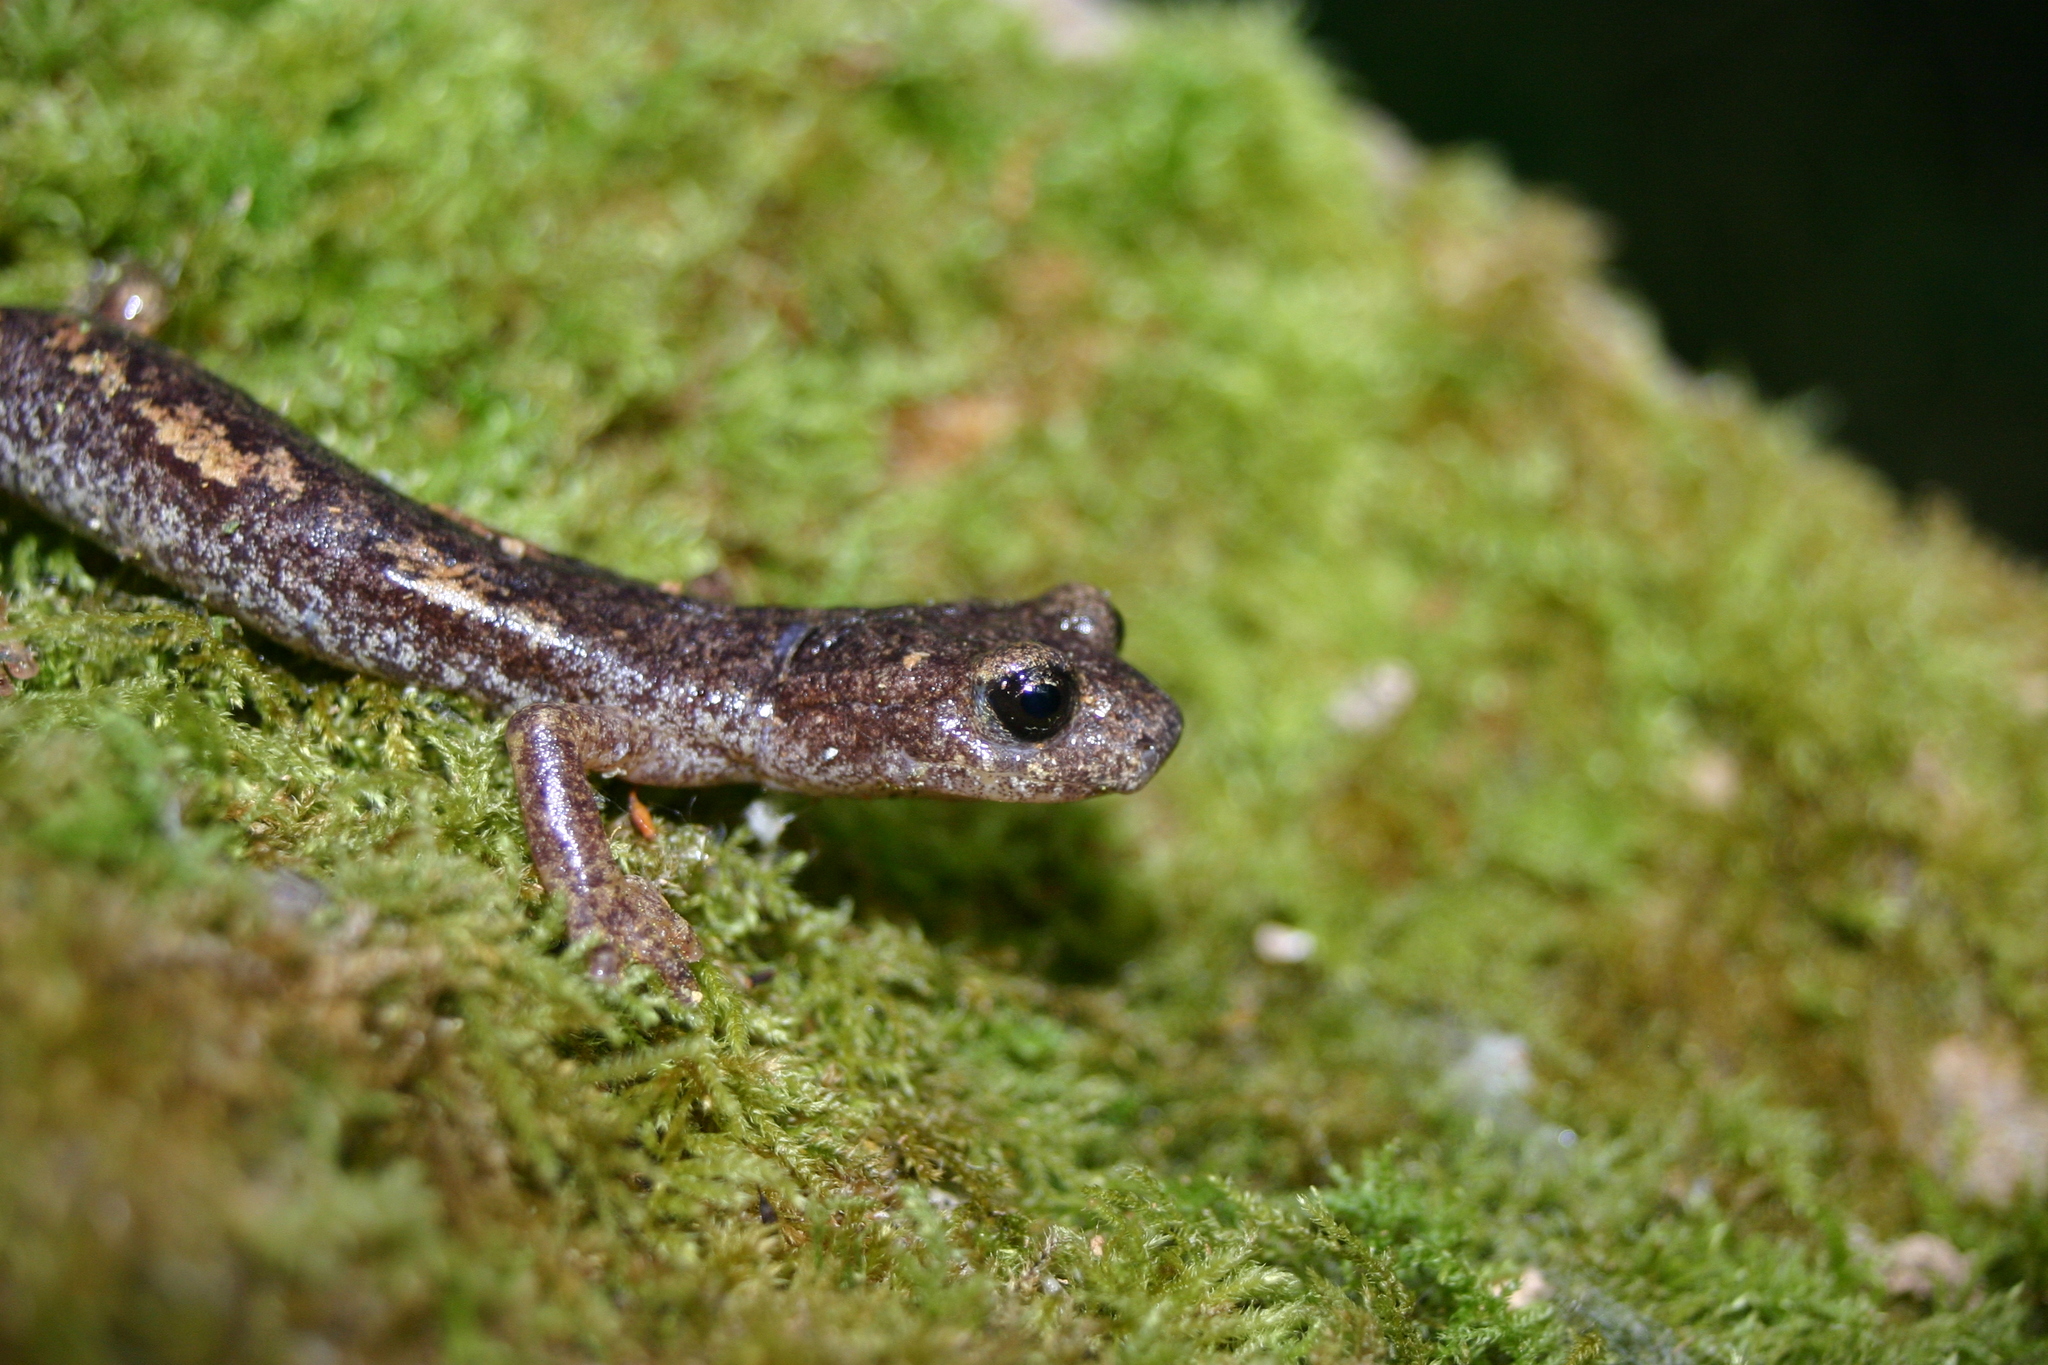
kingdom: Animalia
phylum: Chordata
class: Amphibia
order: Caudata
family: Plethodontidae
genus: Speleomantes
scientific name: Speleomantes ambrosii
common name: Ambrosi's cave salamander
